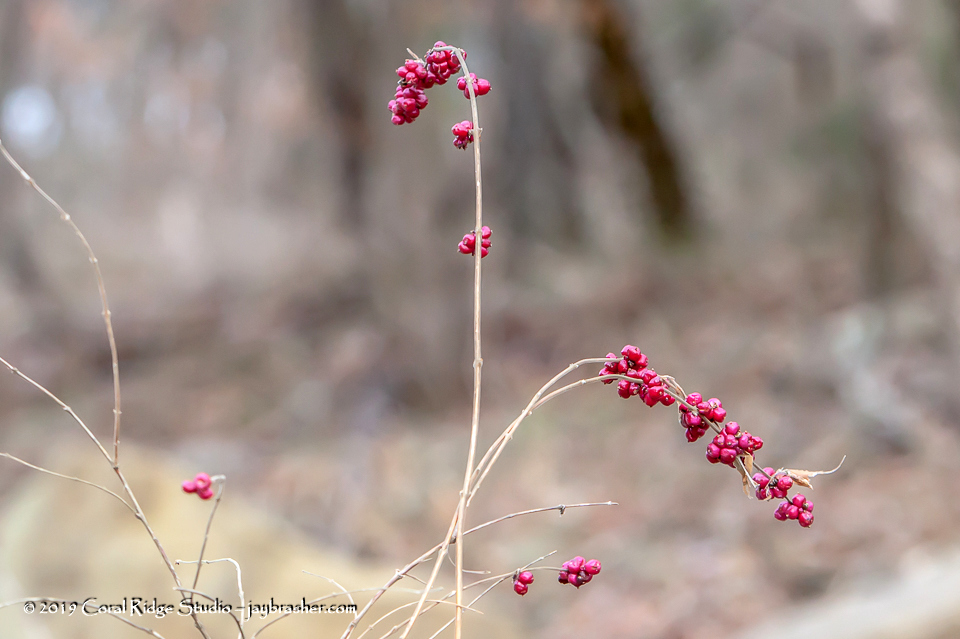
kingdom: Plantae
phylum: Tracheophyta
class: Magnoliopsida
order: Dipsacales
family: Caprifoliaceae
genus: Symphoricarpos
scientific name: Symphoricarpos orbiculatus
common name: Coralberry
